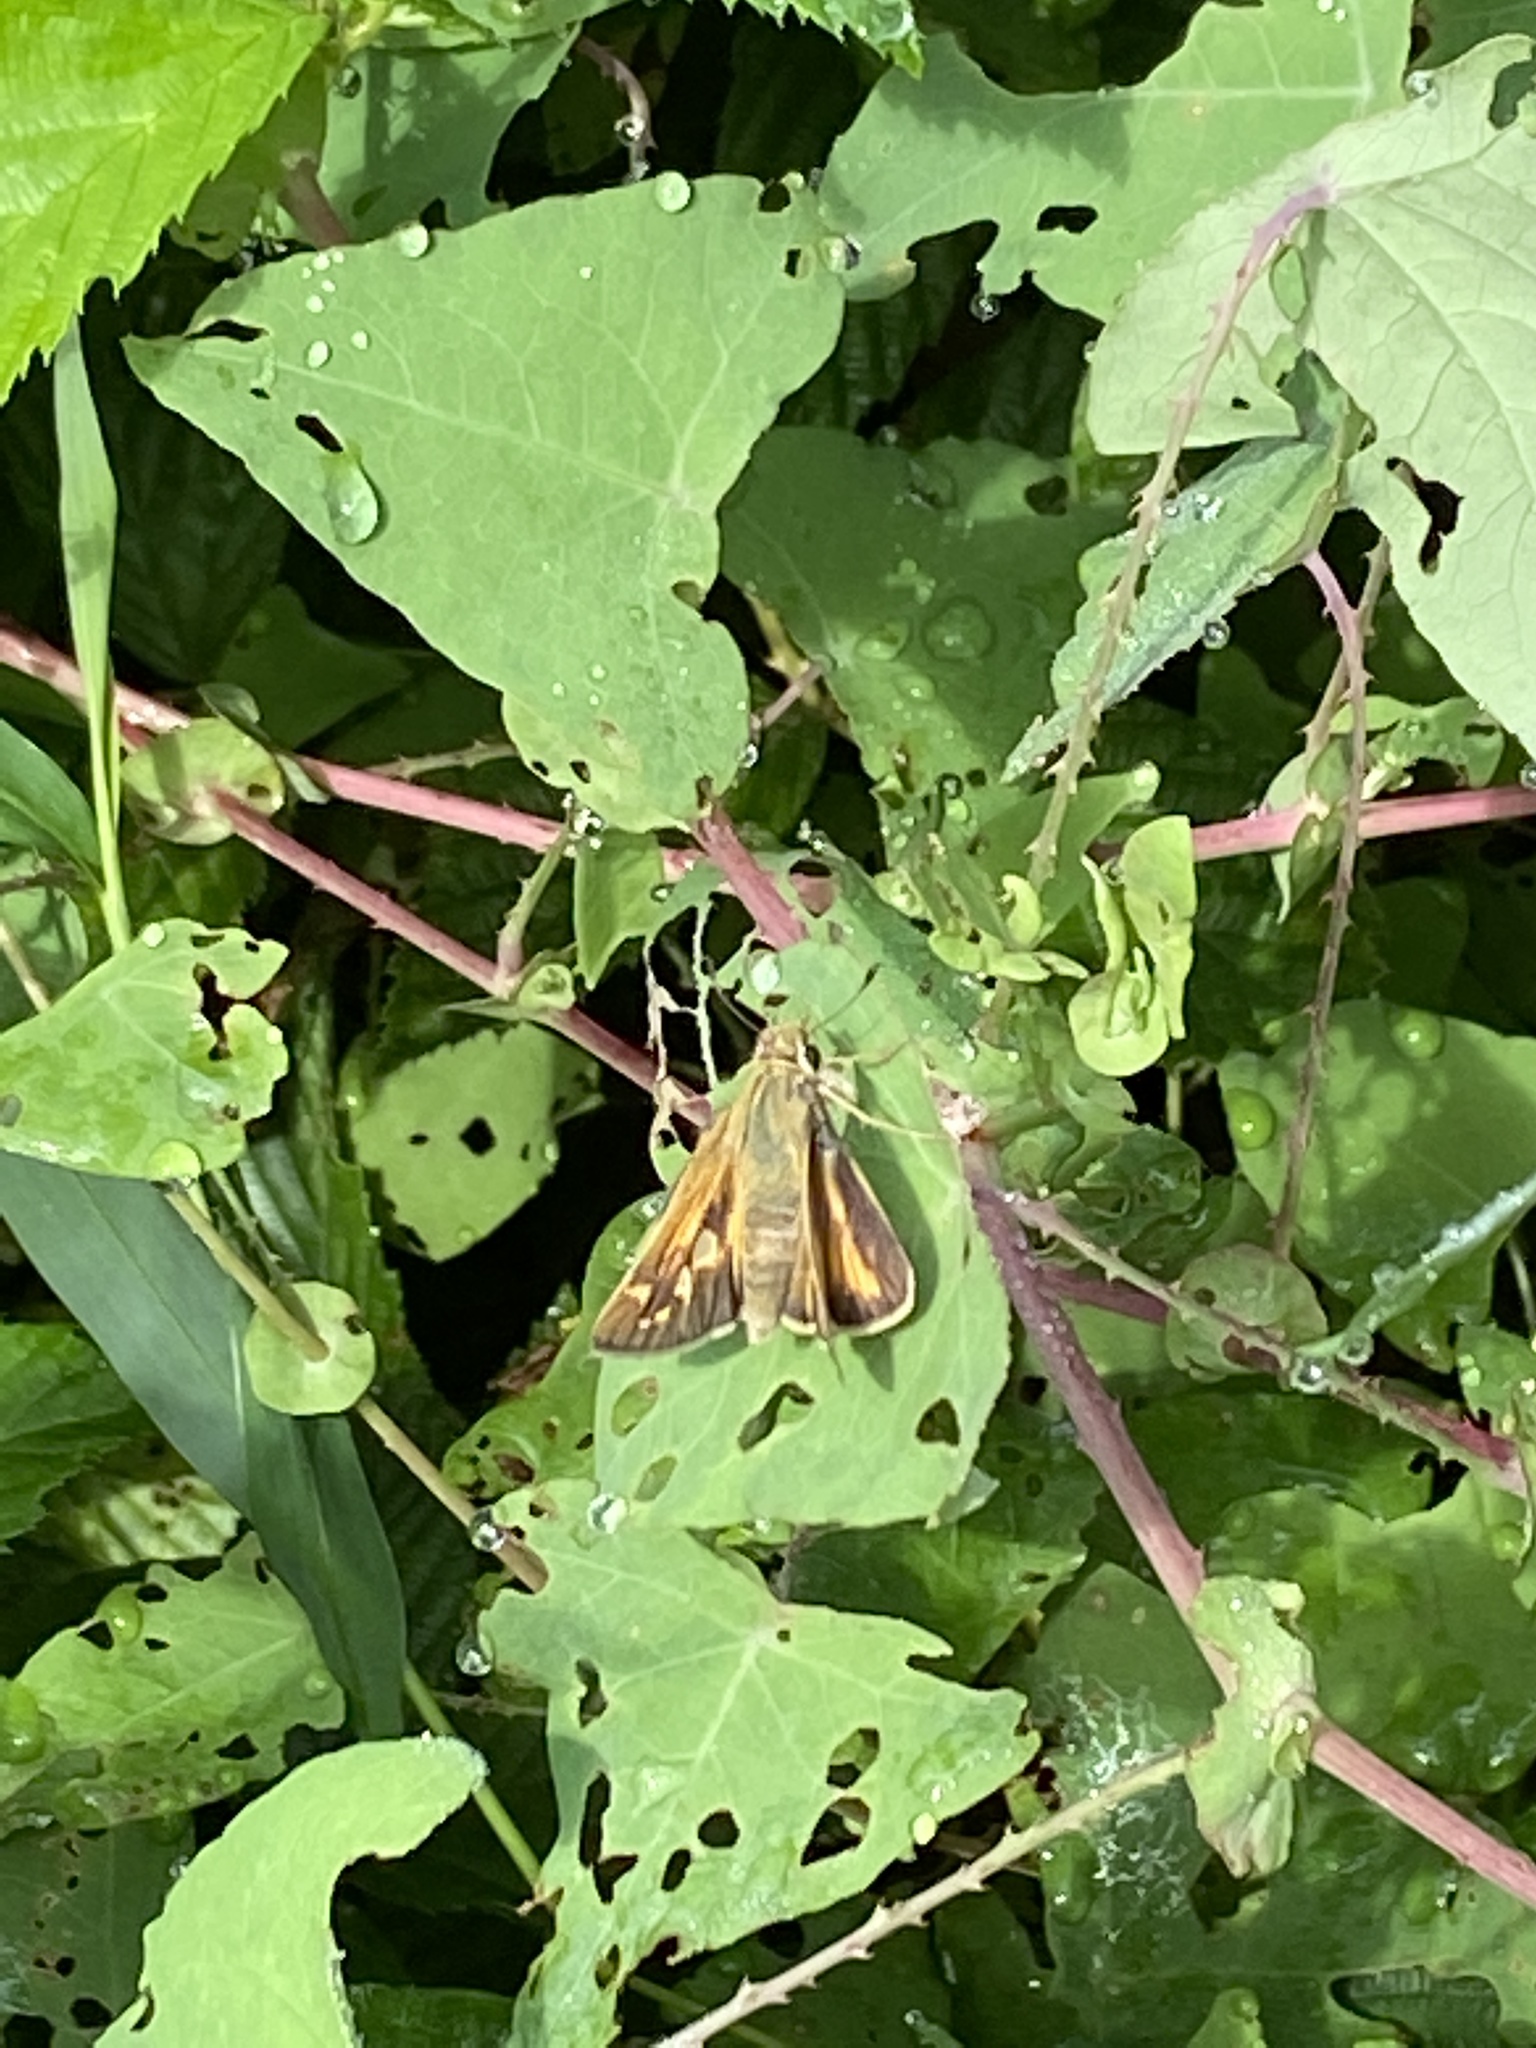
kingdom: Animalia
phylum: Arthropoda
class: Insecta
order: Lepidoptera
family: Hesperiidae
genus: Atalopedes
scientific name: Atalopedes
